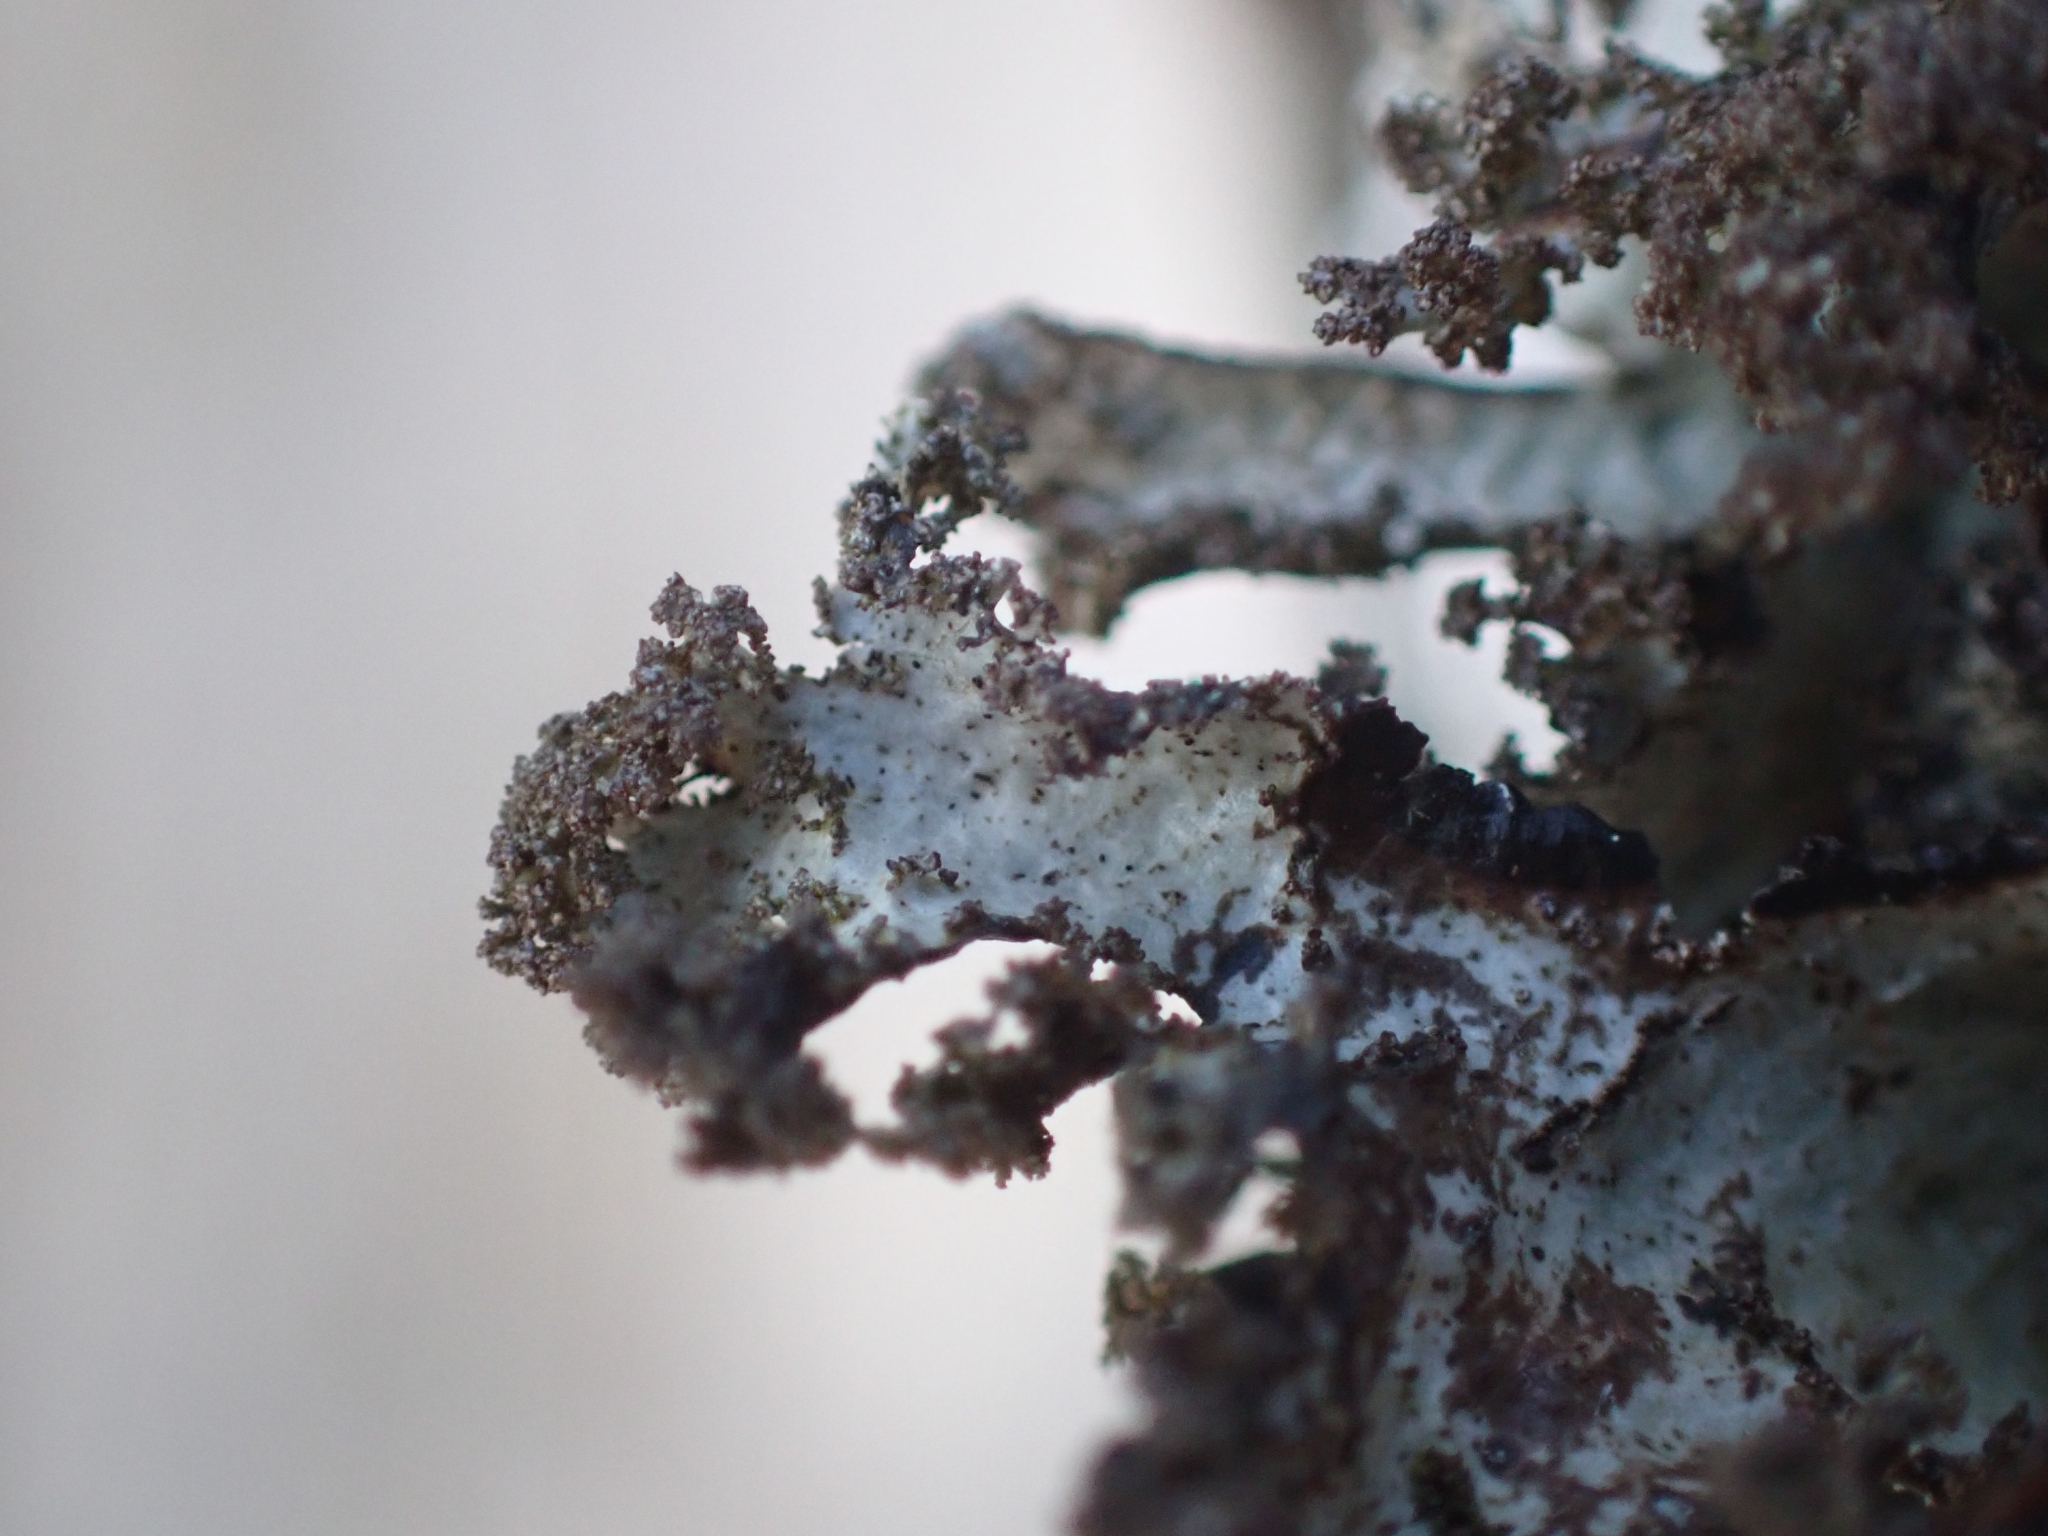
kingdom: Fungi
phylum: Ascomycota
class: Lecanoromycetes
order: Lecanorales
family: Parmeliaceae
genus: Platismatia
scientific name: Platismatia glauca
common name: Varied rag lichen
